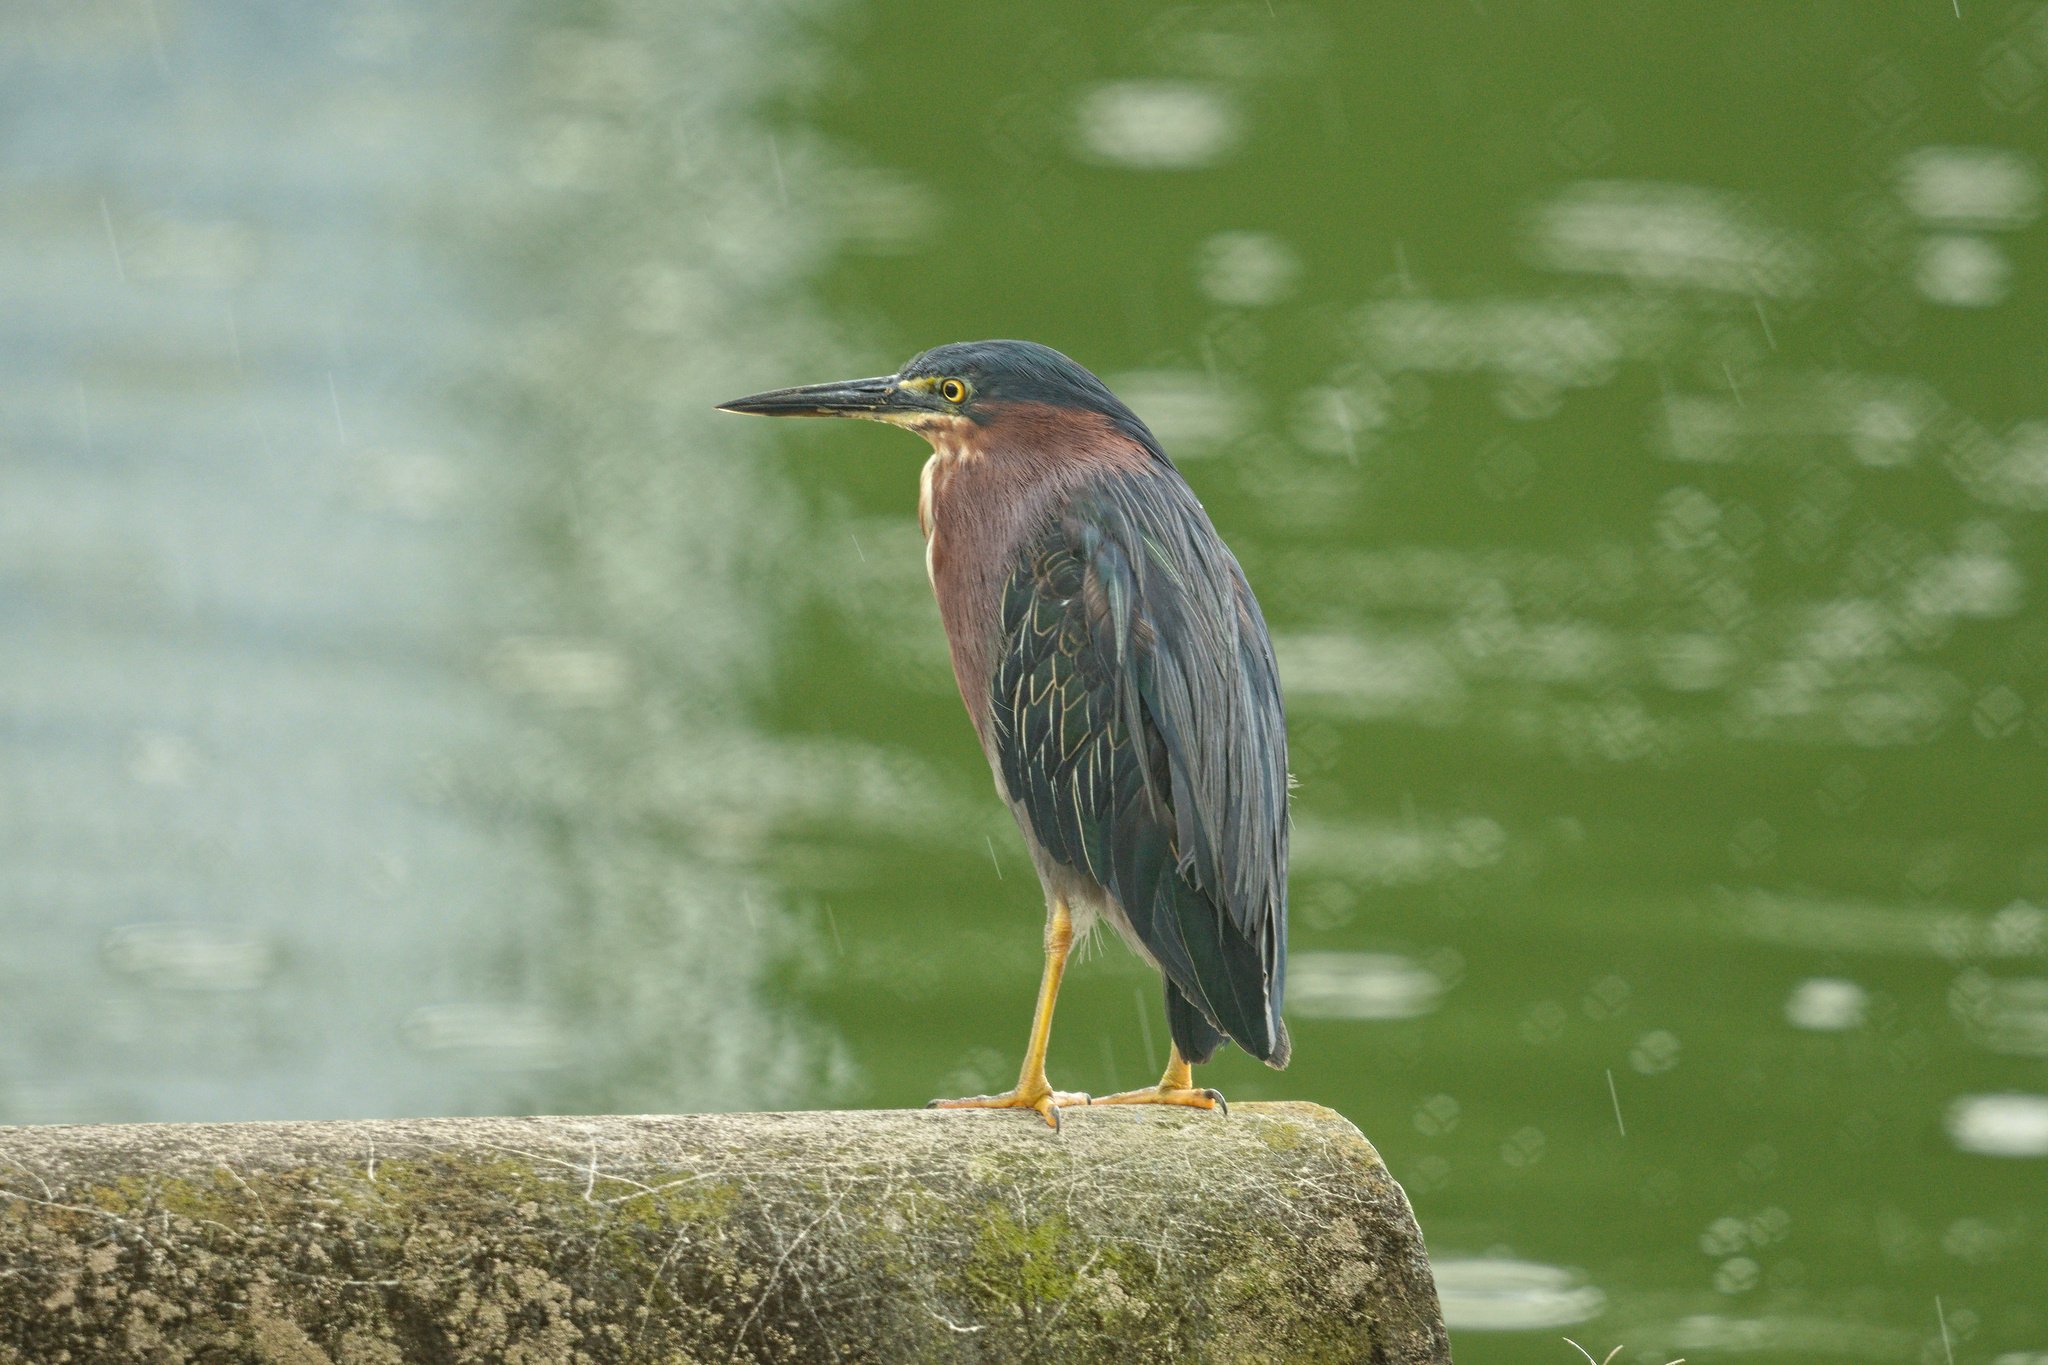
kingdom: Animalia
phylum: Chordata
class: Aves
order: Pelecaniformes
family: Ardeidae
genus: Butorides
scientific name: Butorides virescens
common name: Green heron
